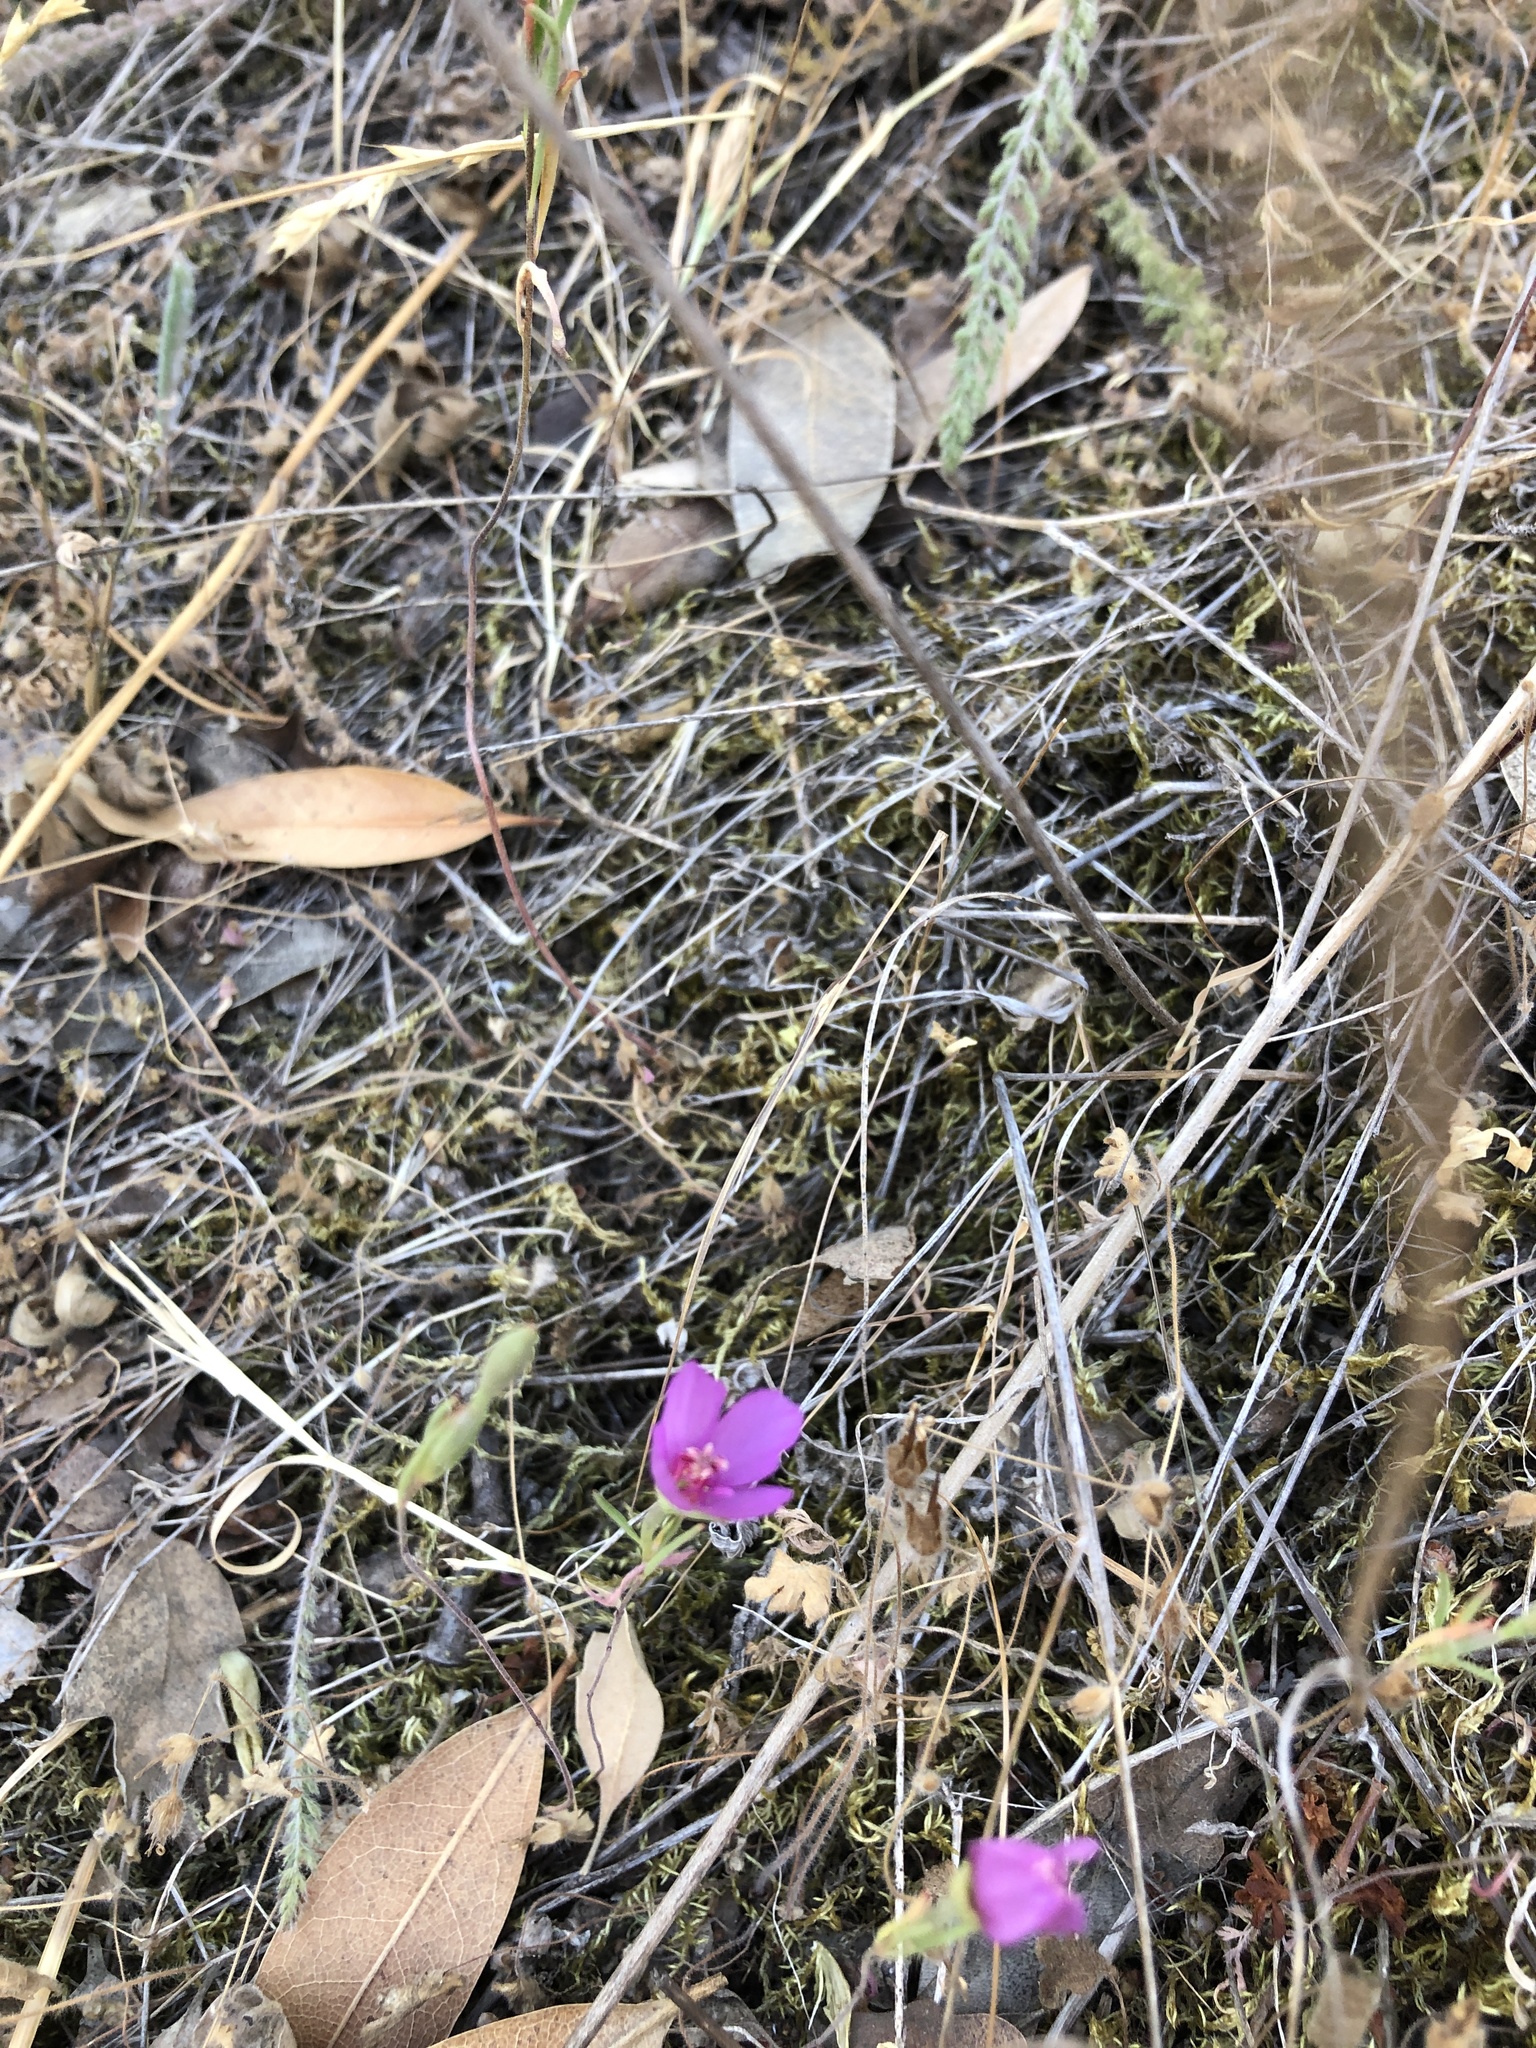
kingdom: Plantae
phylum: Tracheophyta
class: Magnoliopsida
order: Myrtales
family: Onagraceae
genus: Clarkia
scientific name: Clarkia rubicunda
